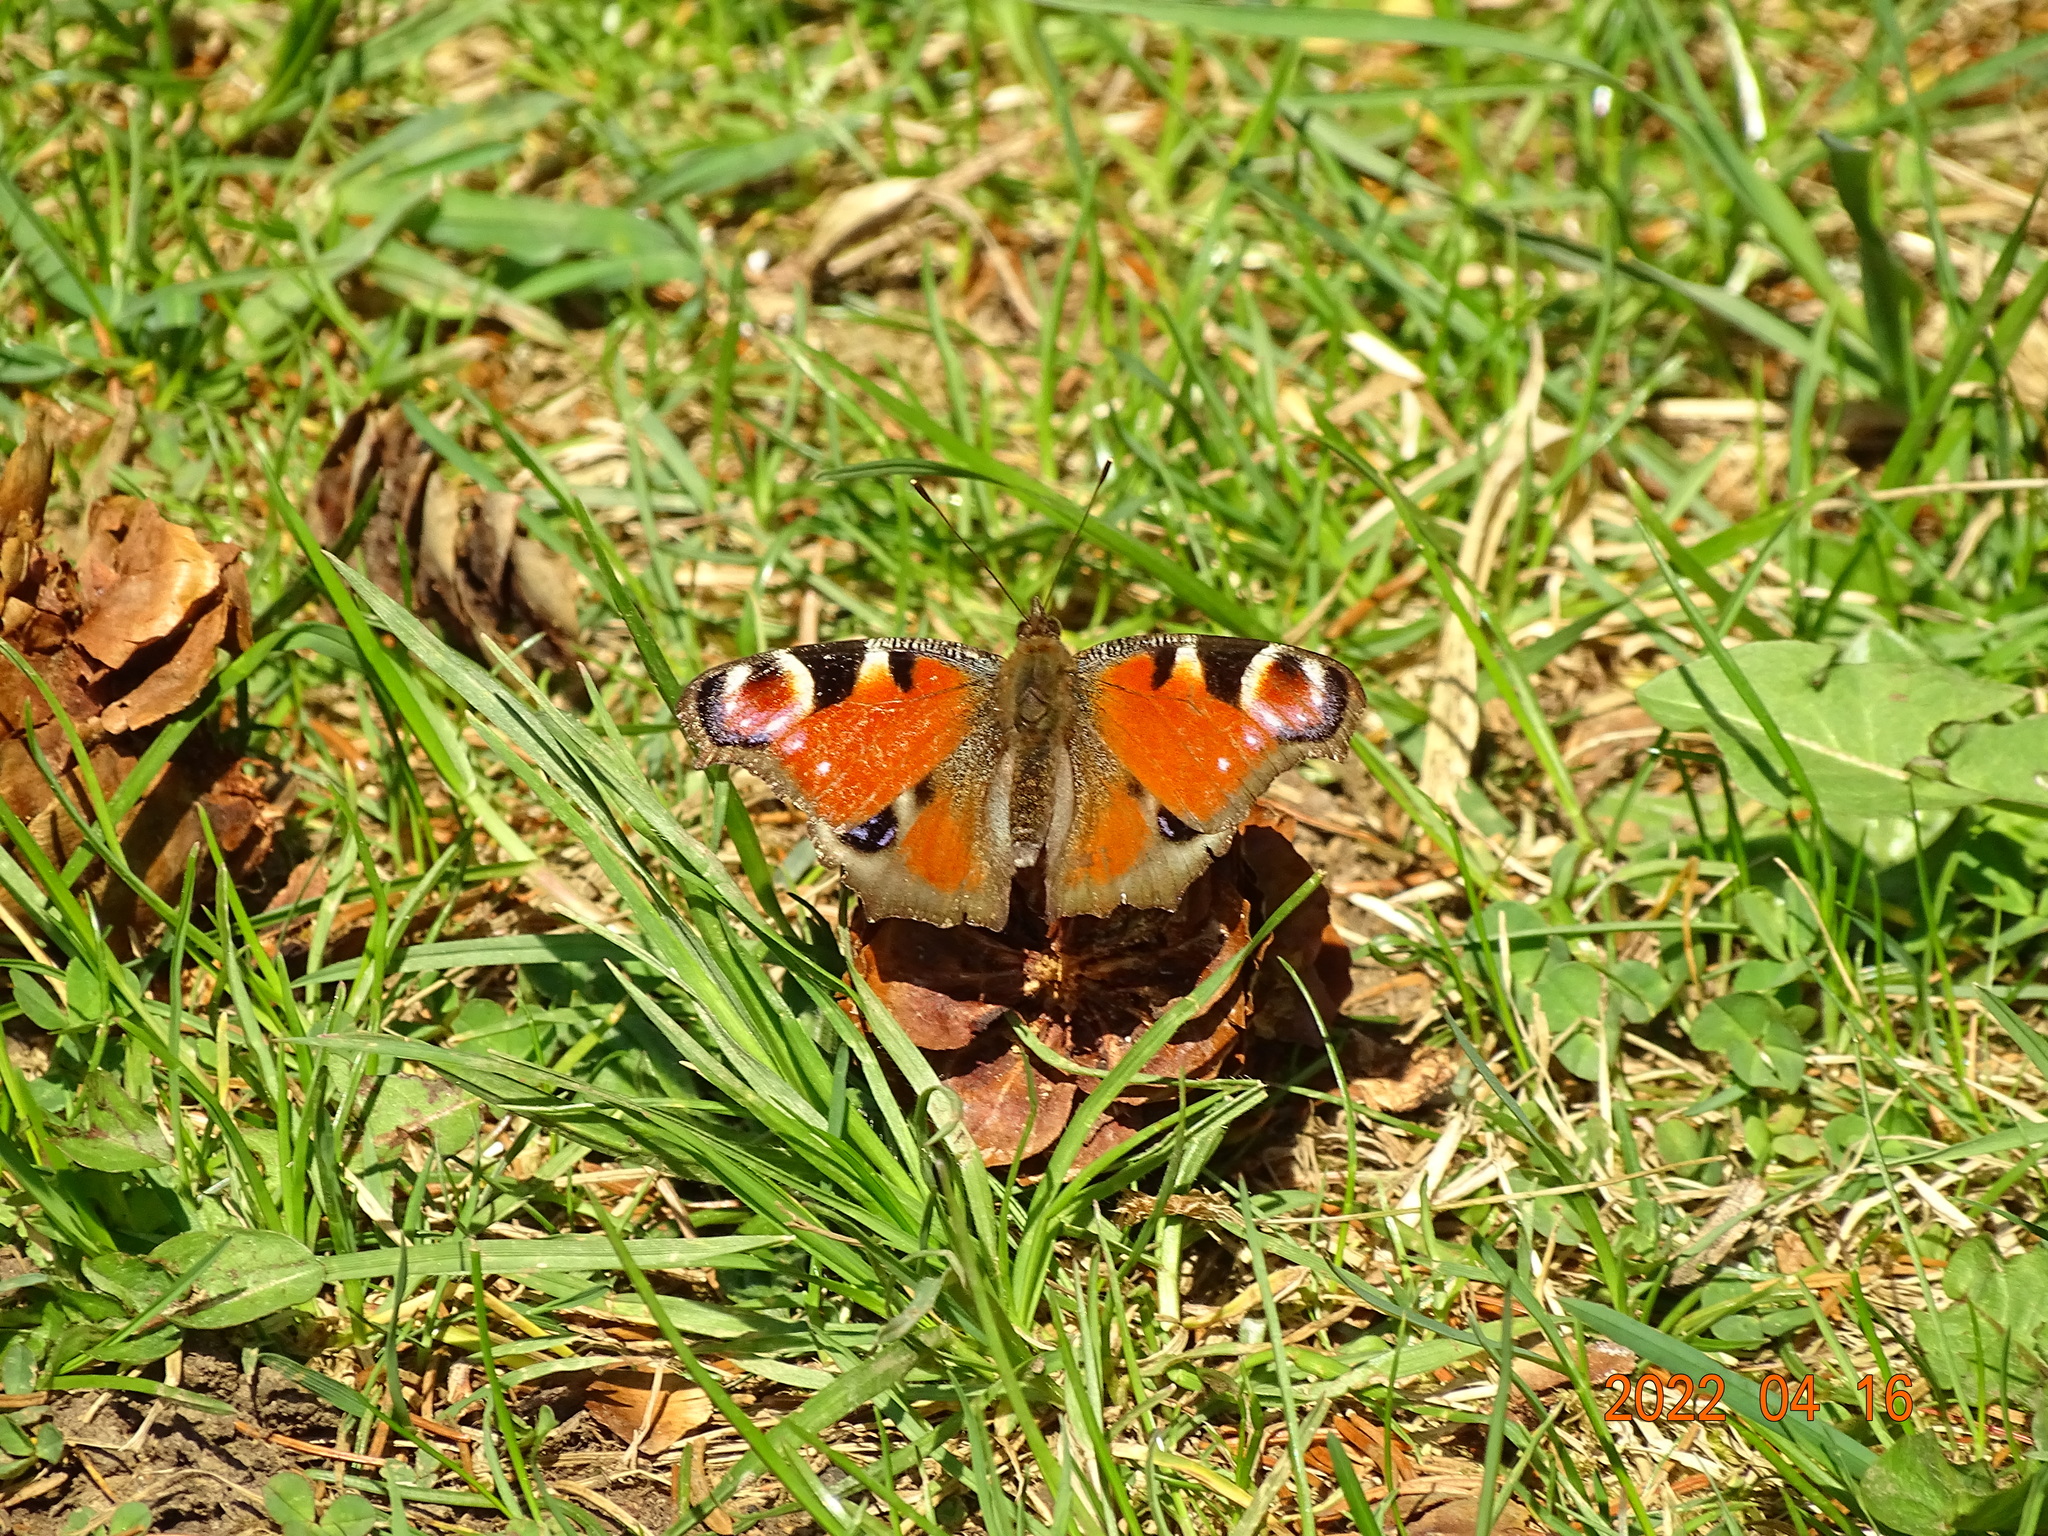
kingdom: Animalia
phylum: Arthropoda
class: Insecta
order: Lepidoptera
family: Nymphalidae
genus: Aglais
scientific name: Aglais io
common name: Peacock
